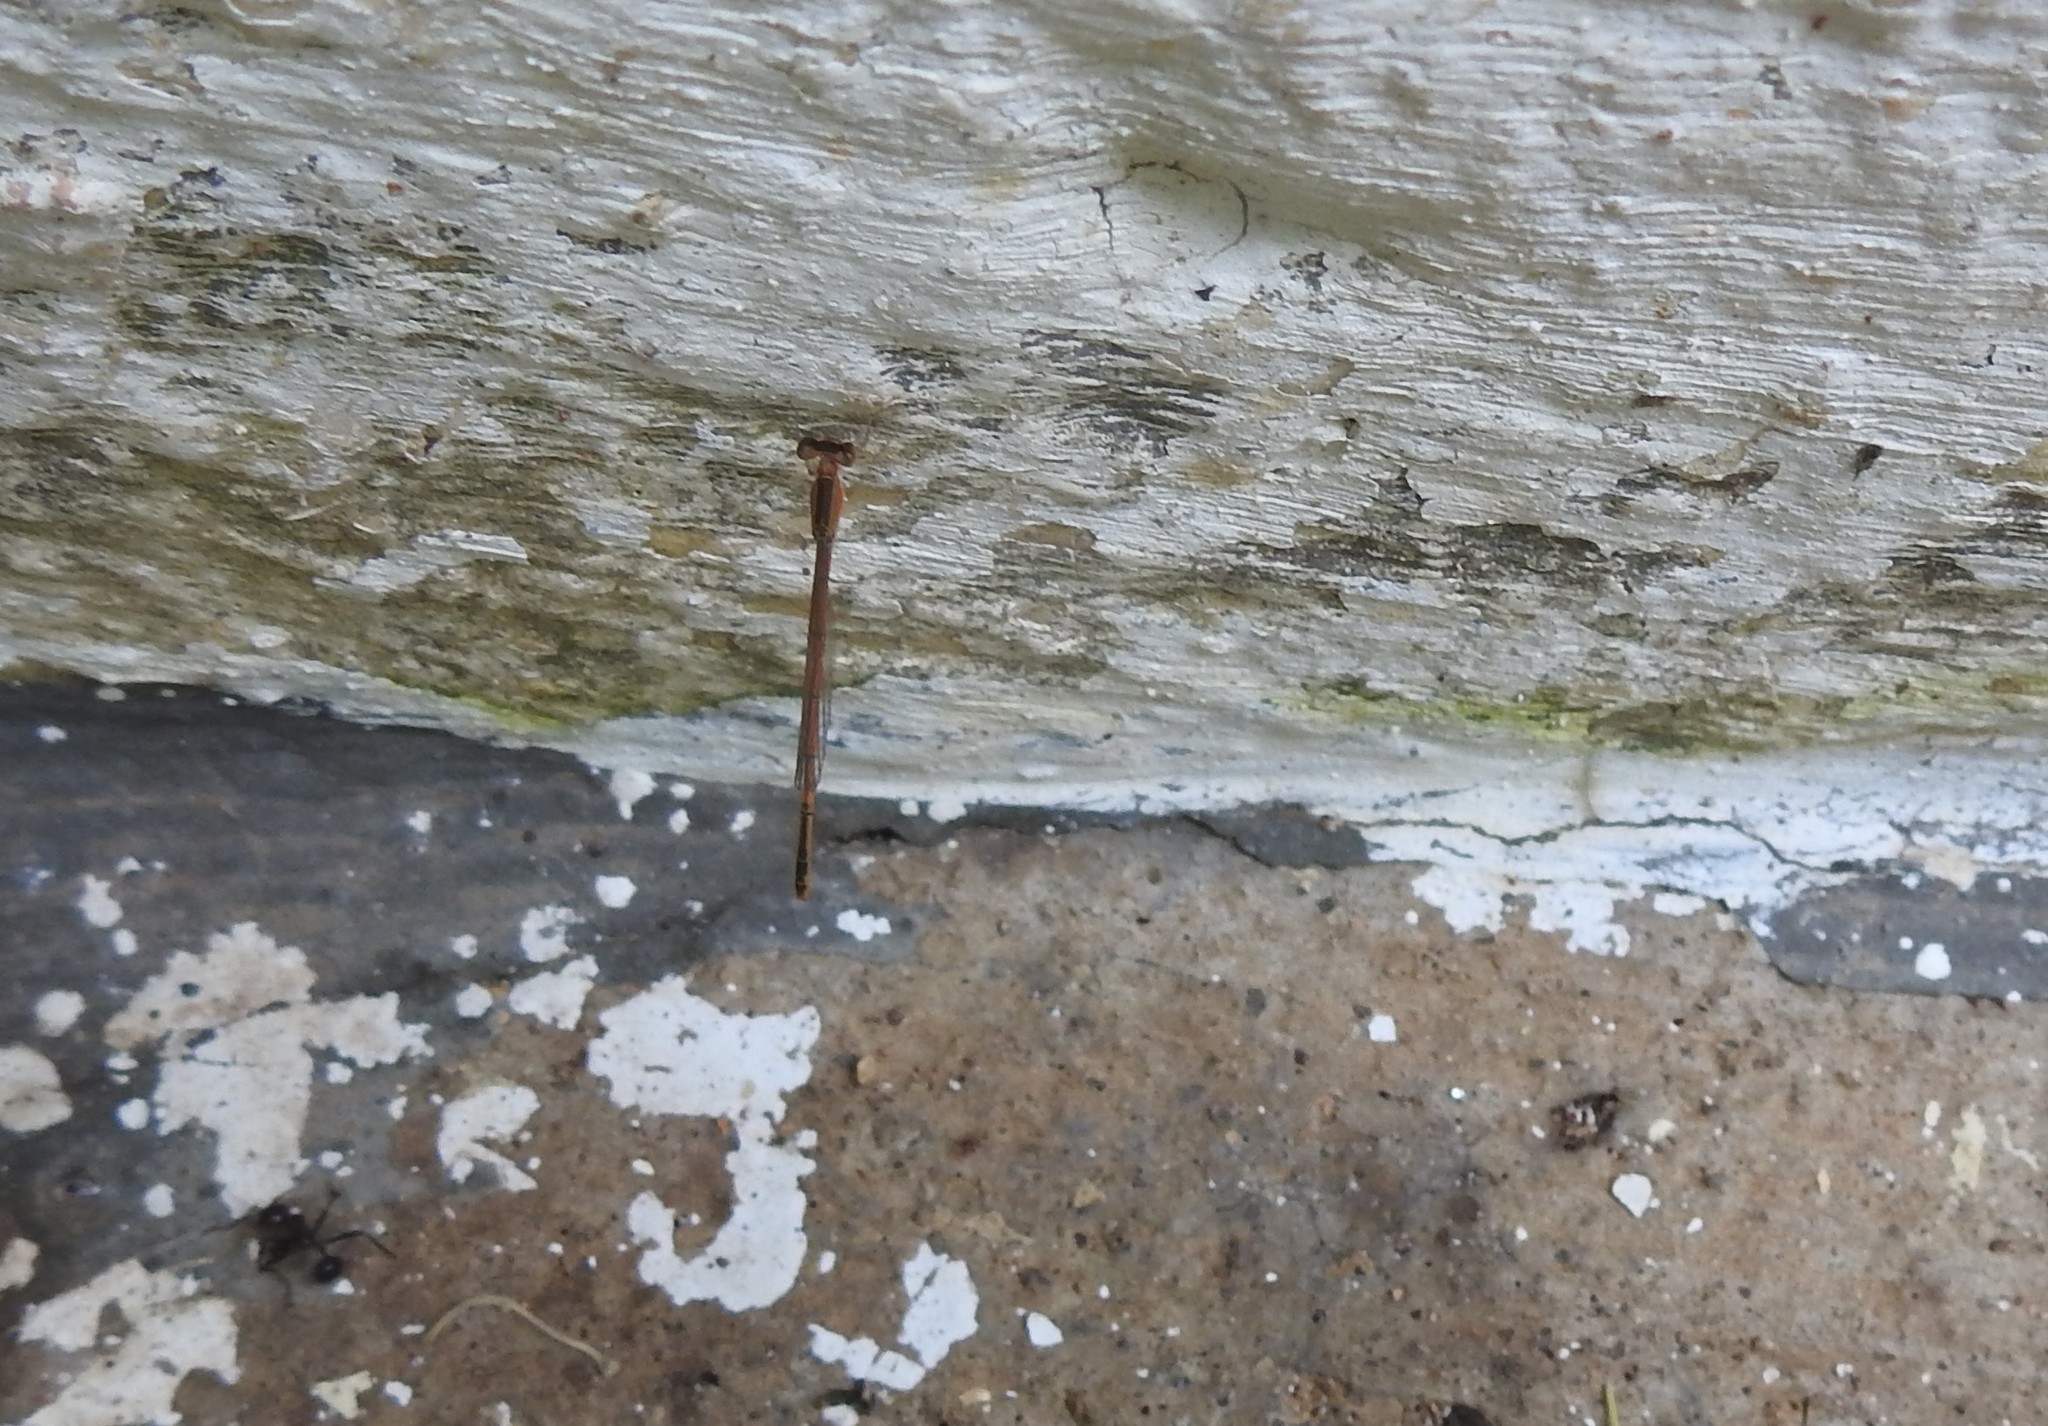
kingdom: Animalia
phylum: Arthropoda
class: Insecta
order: Odonata
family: Coenagrionidae
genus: Agriocnemis
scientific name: Agriocnemis pygmaea
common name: Pygmy wisp
